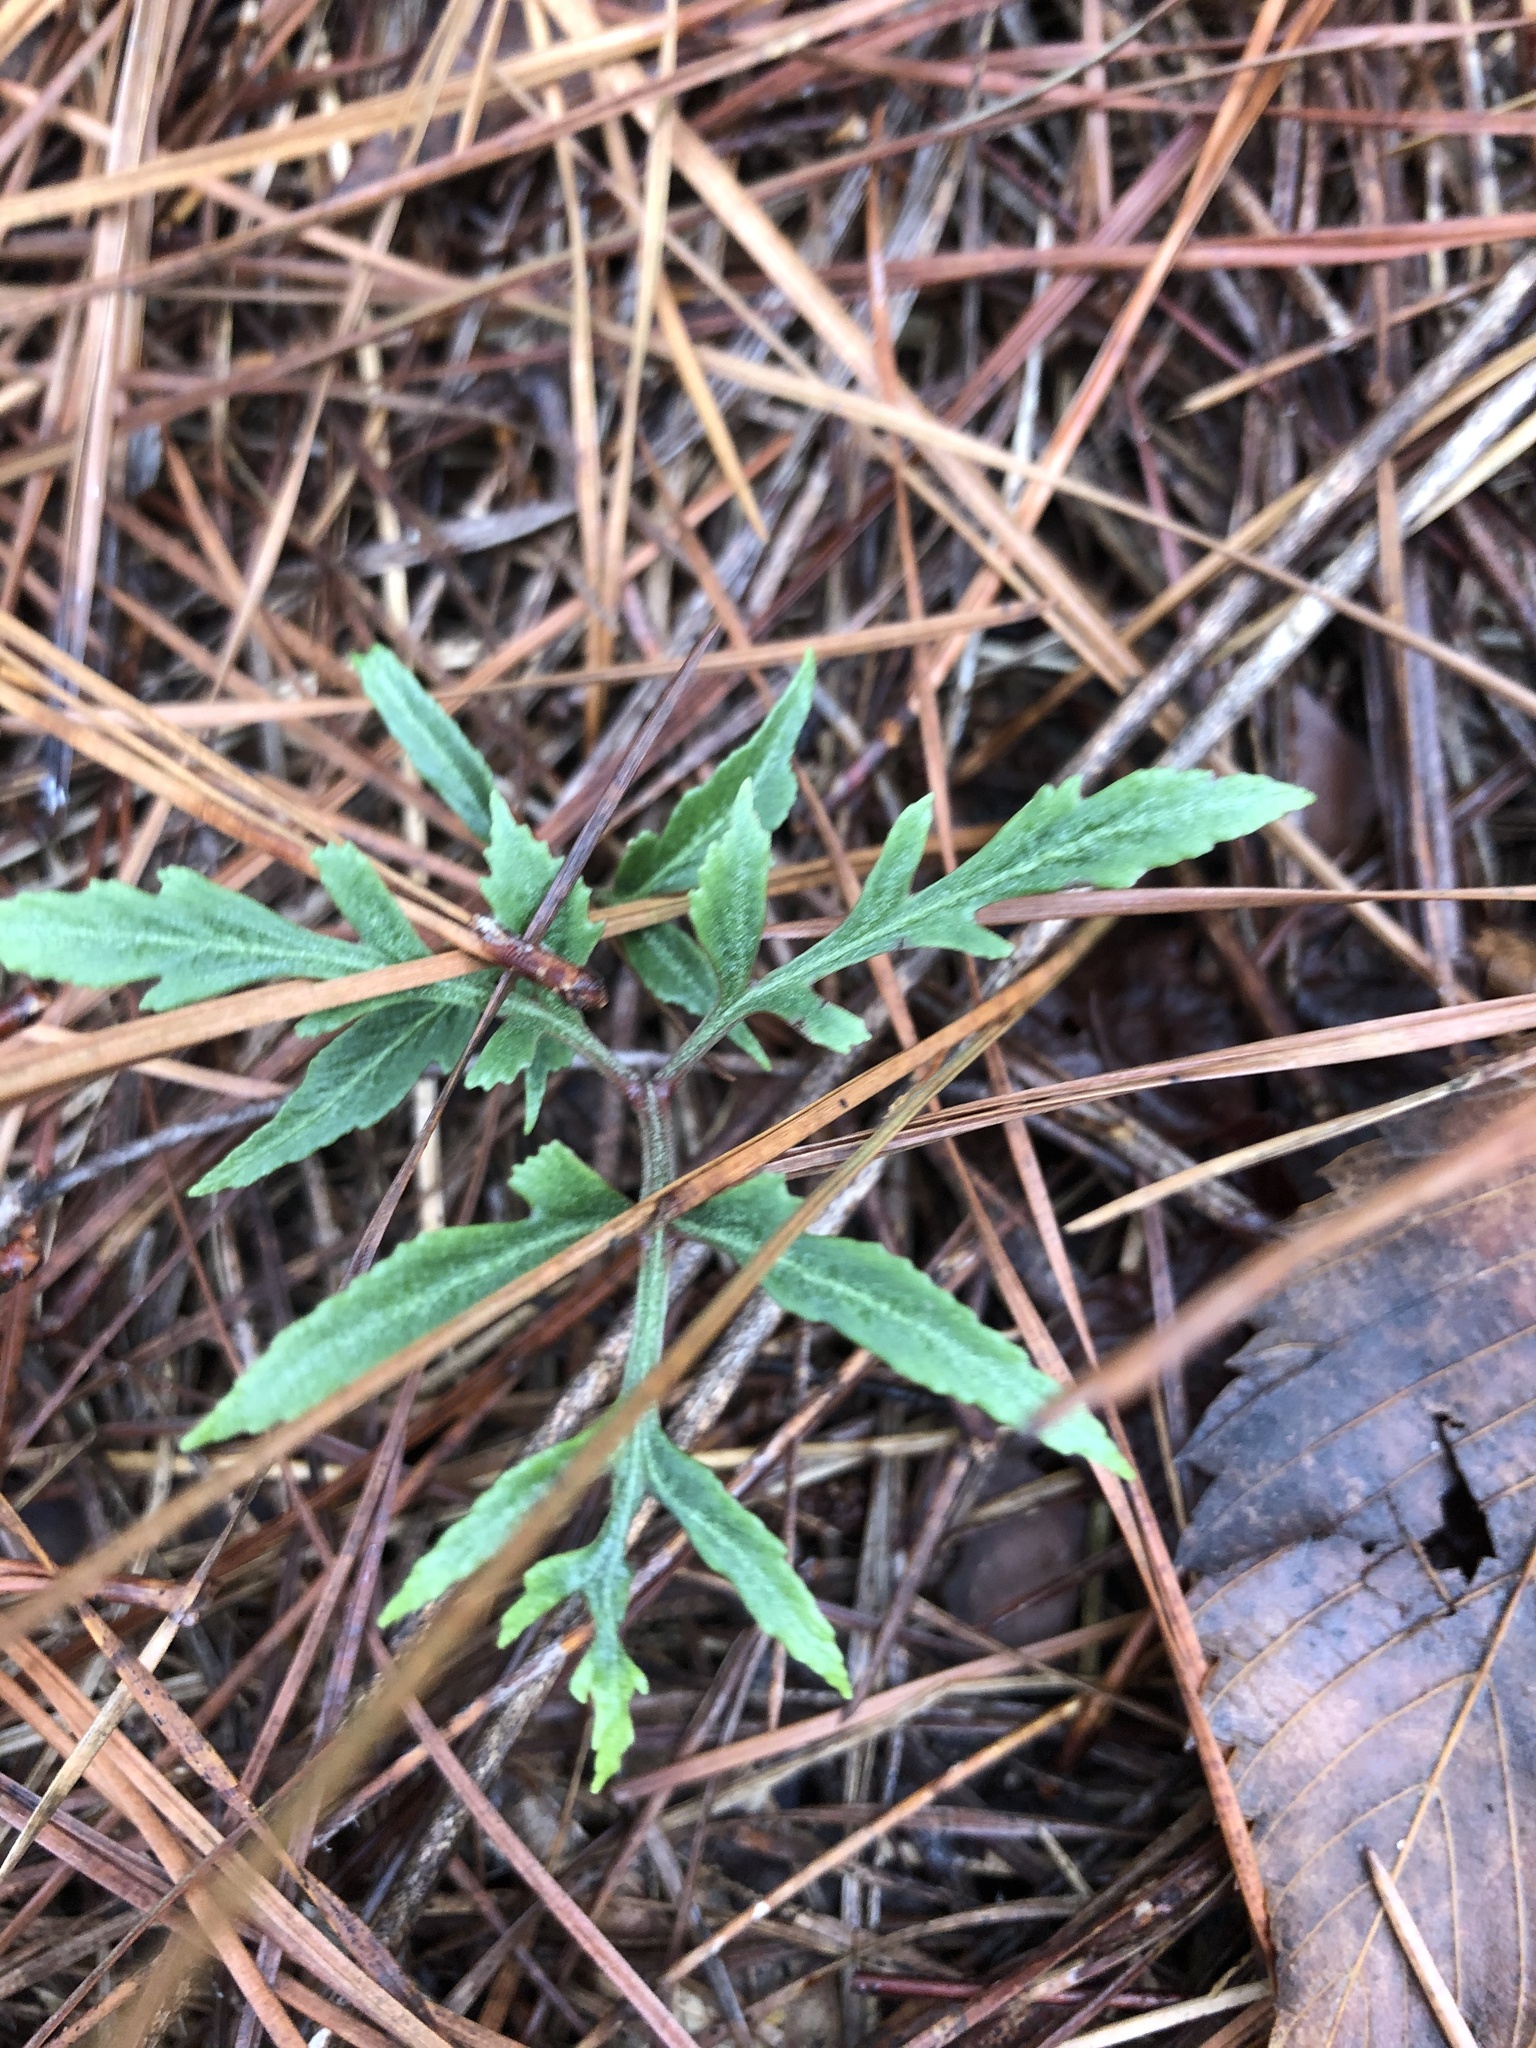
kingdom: Plantae
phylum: Tracheophyta
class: Polypodiopsida
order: Ophioglossales
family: Ophioglossaceae
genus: Sceptridium
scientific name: Sceptridium biternatum
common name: Sparse-lobed grapefern
